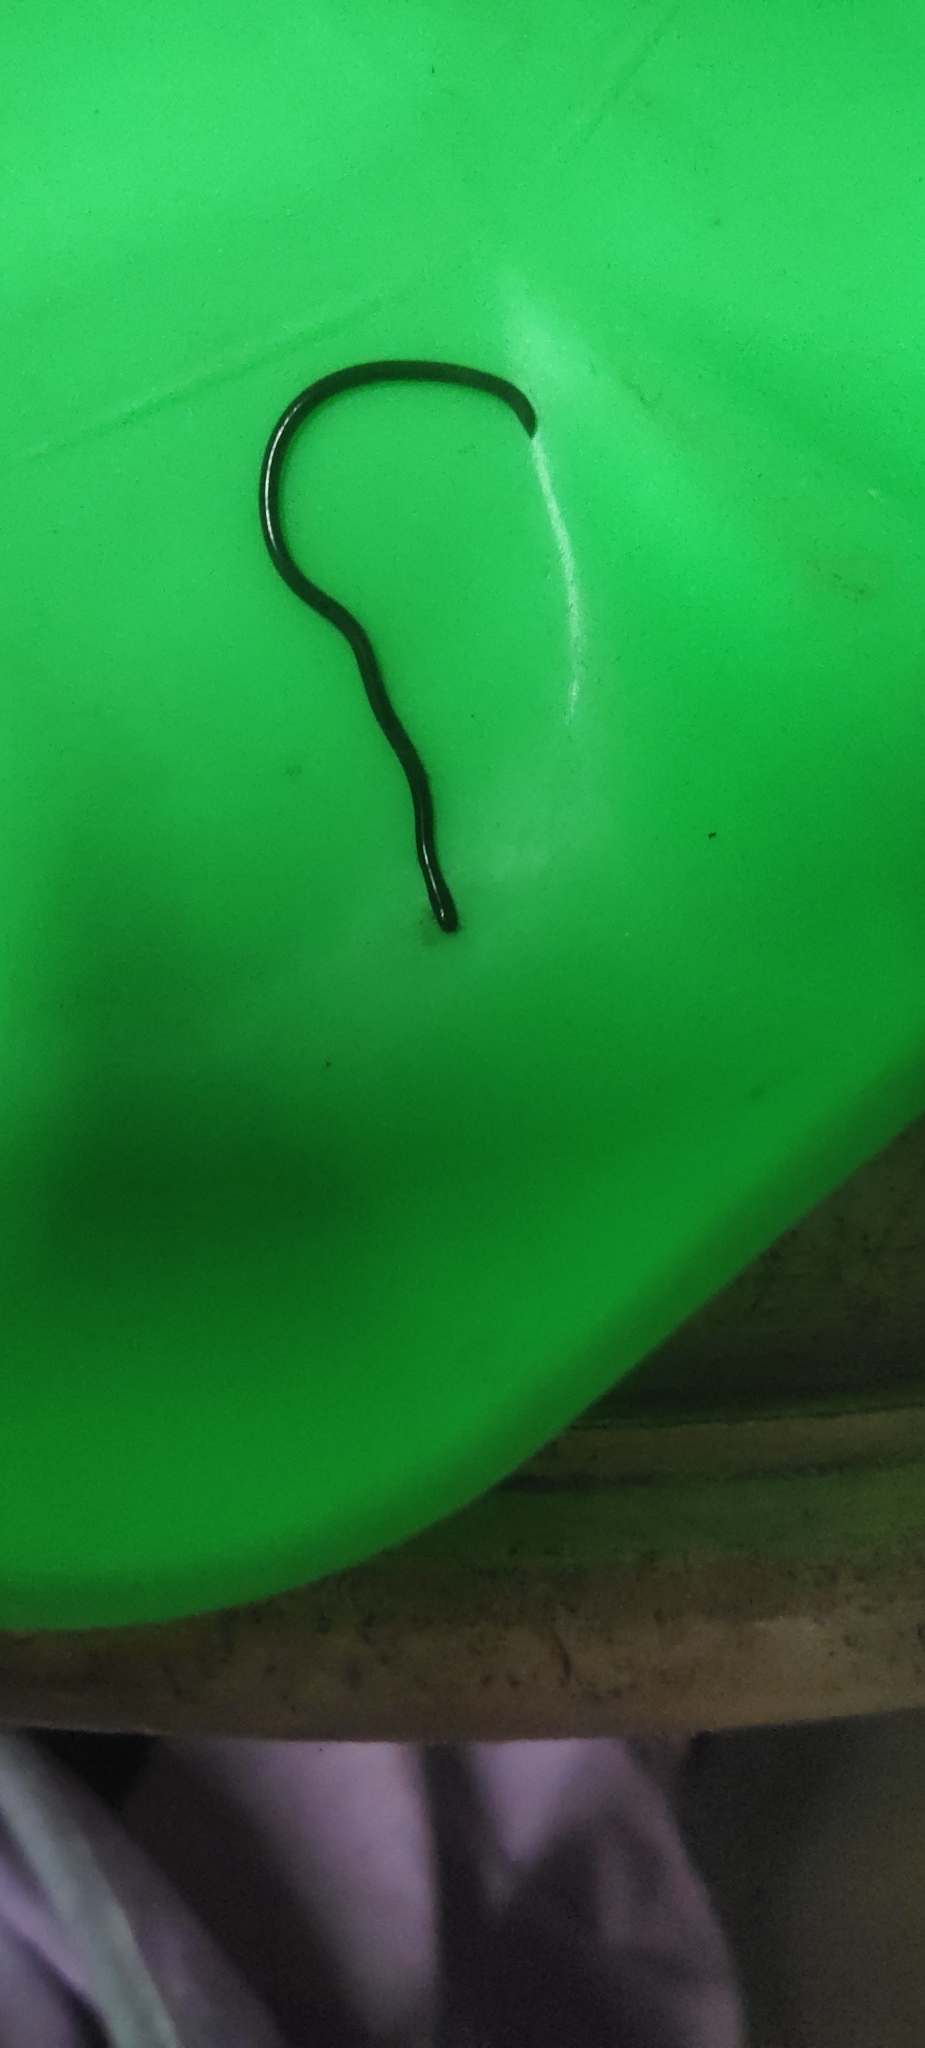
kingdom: Animalia
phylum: Chordata
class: Squamata
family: Typhlopidae
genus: Indotyphlops
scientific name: Indotyphlops braminus
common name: Brahminy blindsnake
